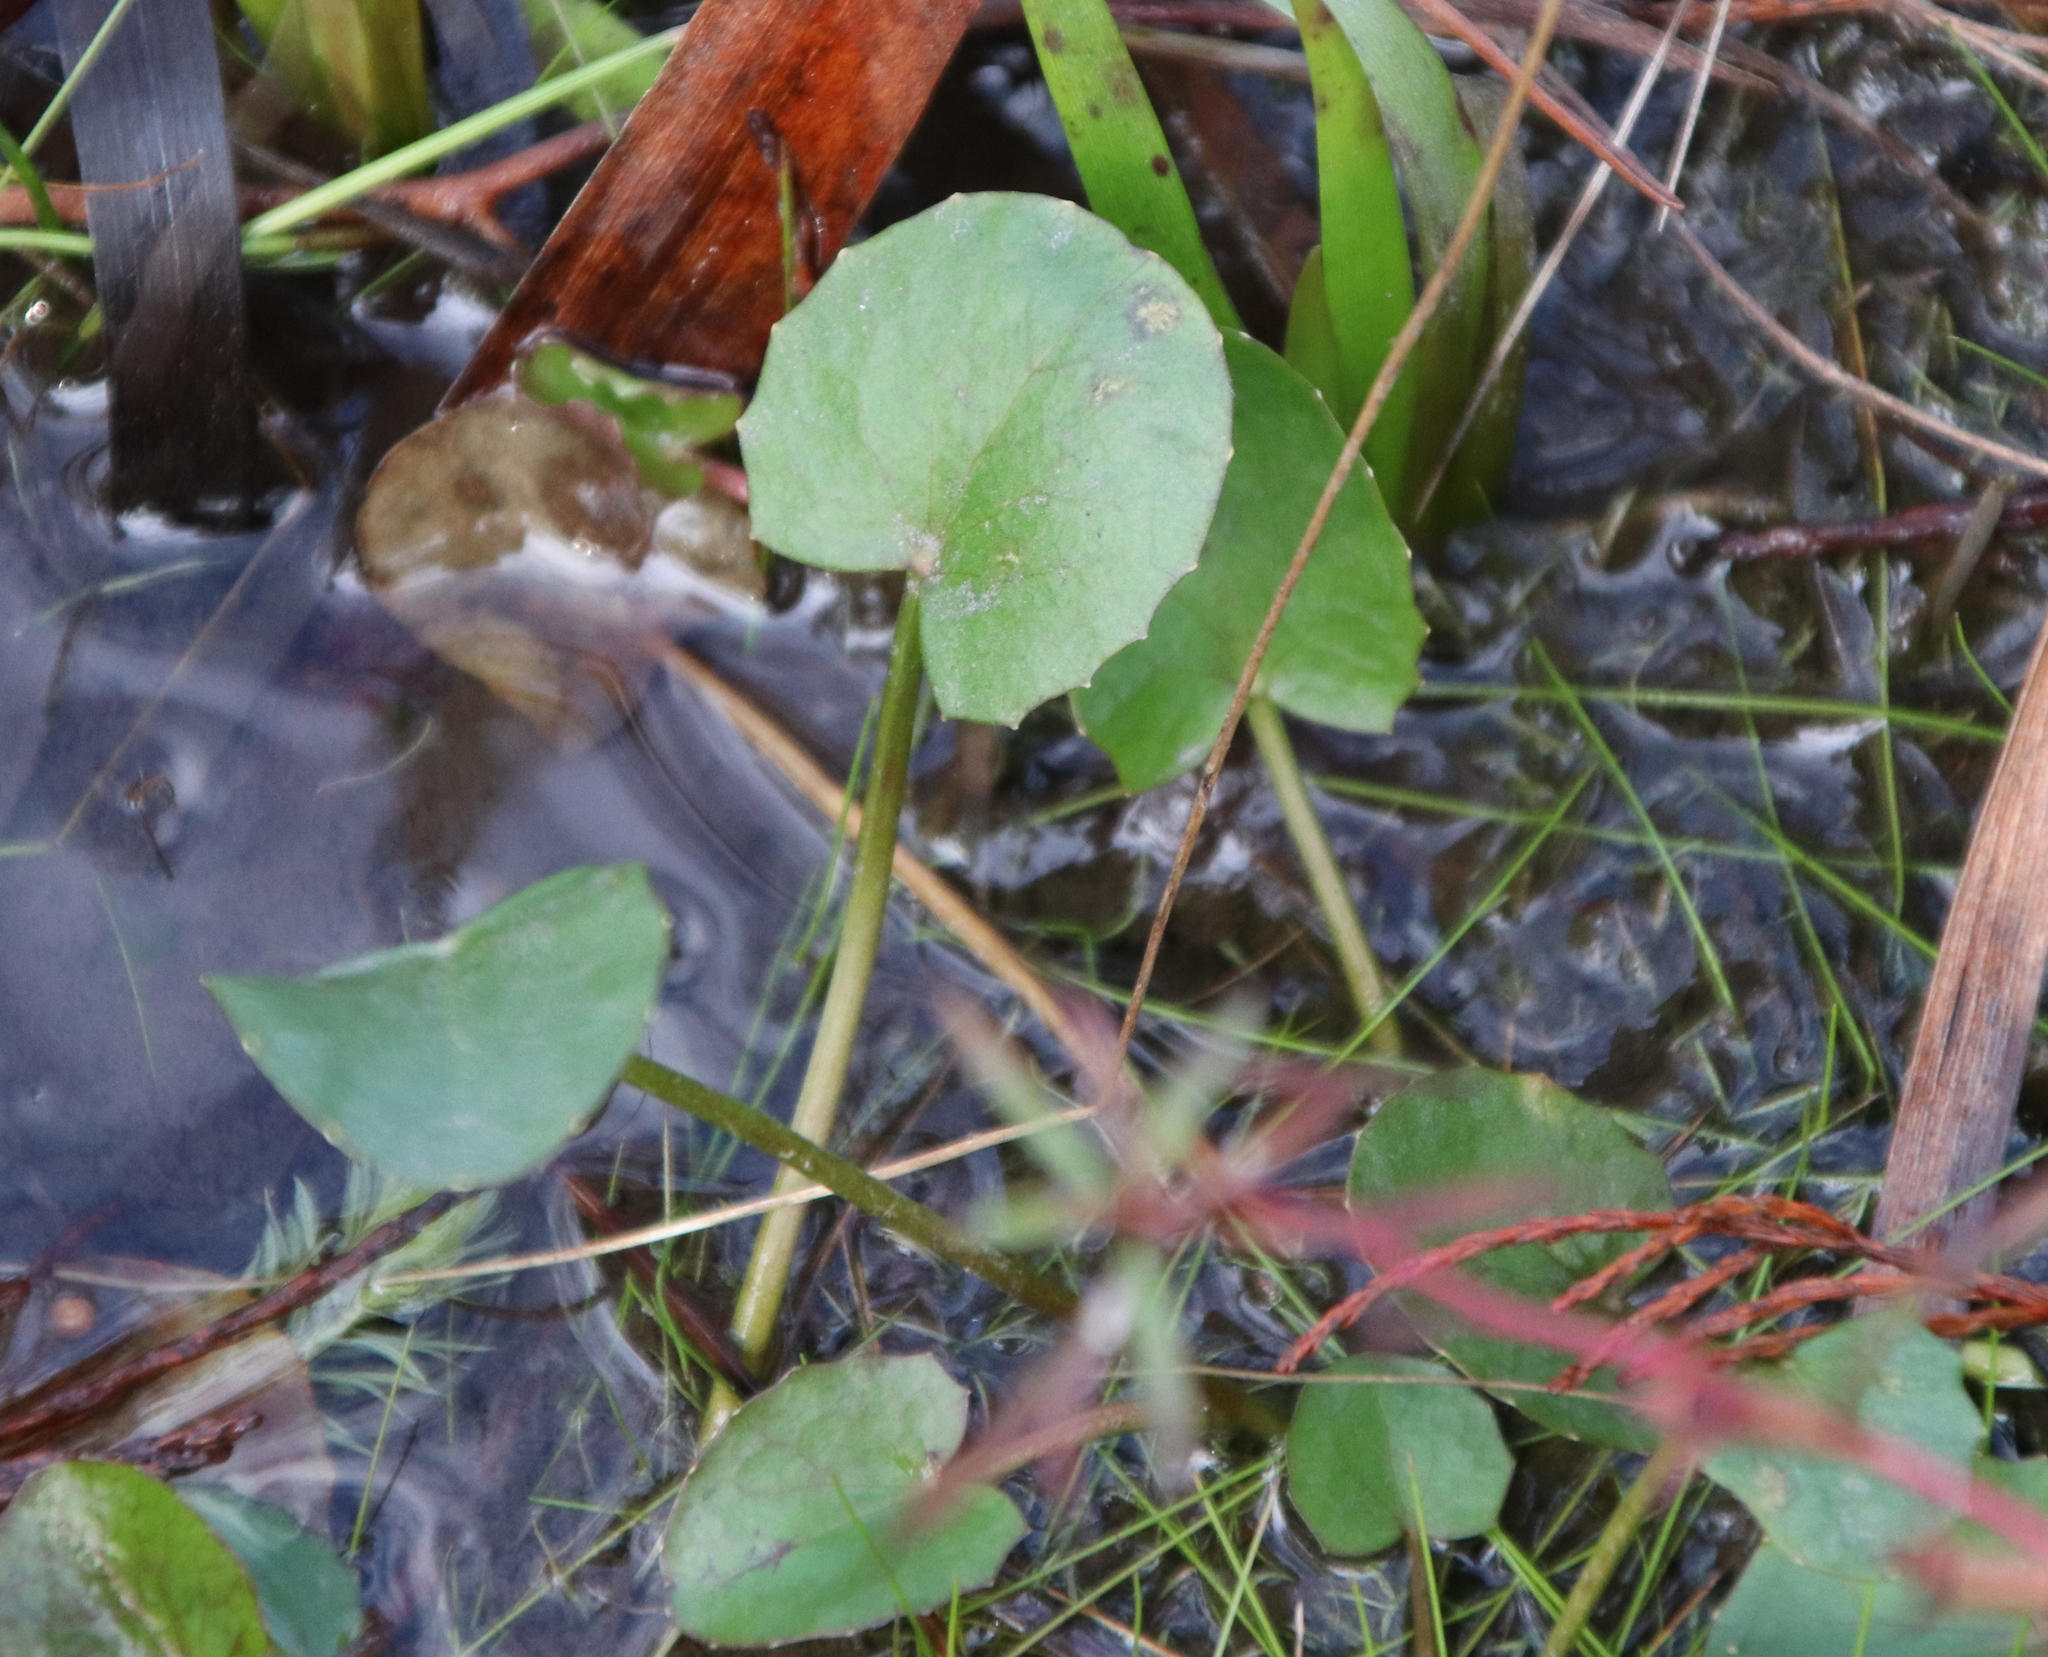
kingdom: Plantae
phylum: Tracheophyta
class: Magnoliopsida
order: Apiales
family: Apiaceae
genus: Centella
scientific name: Centella erecta
